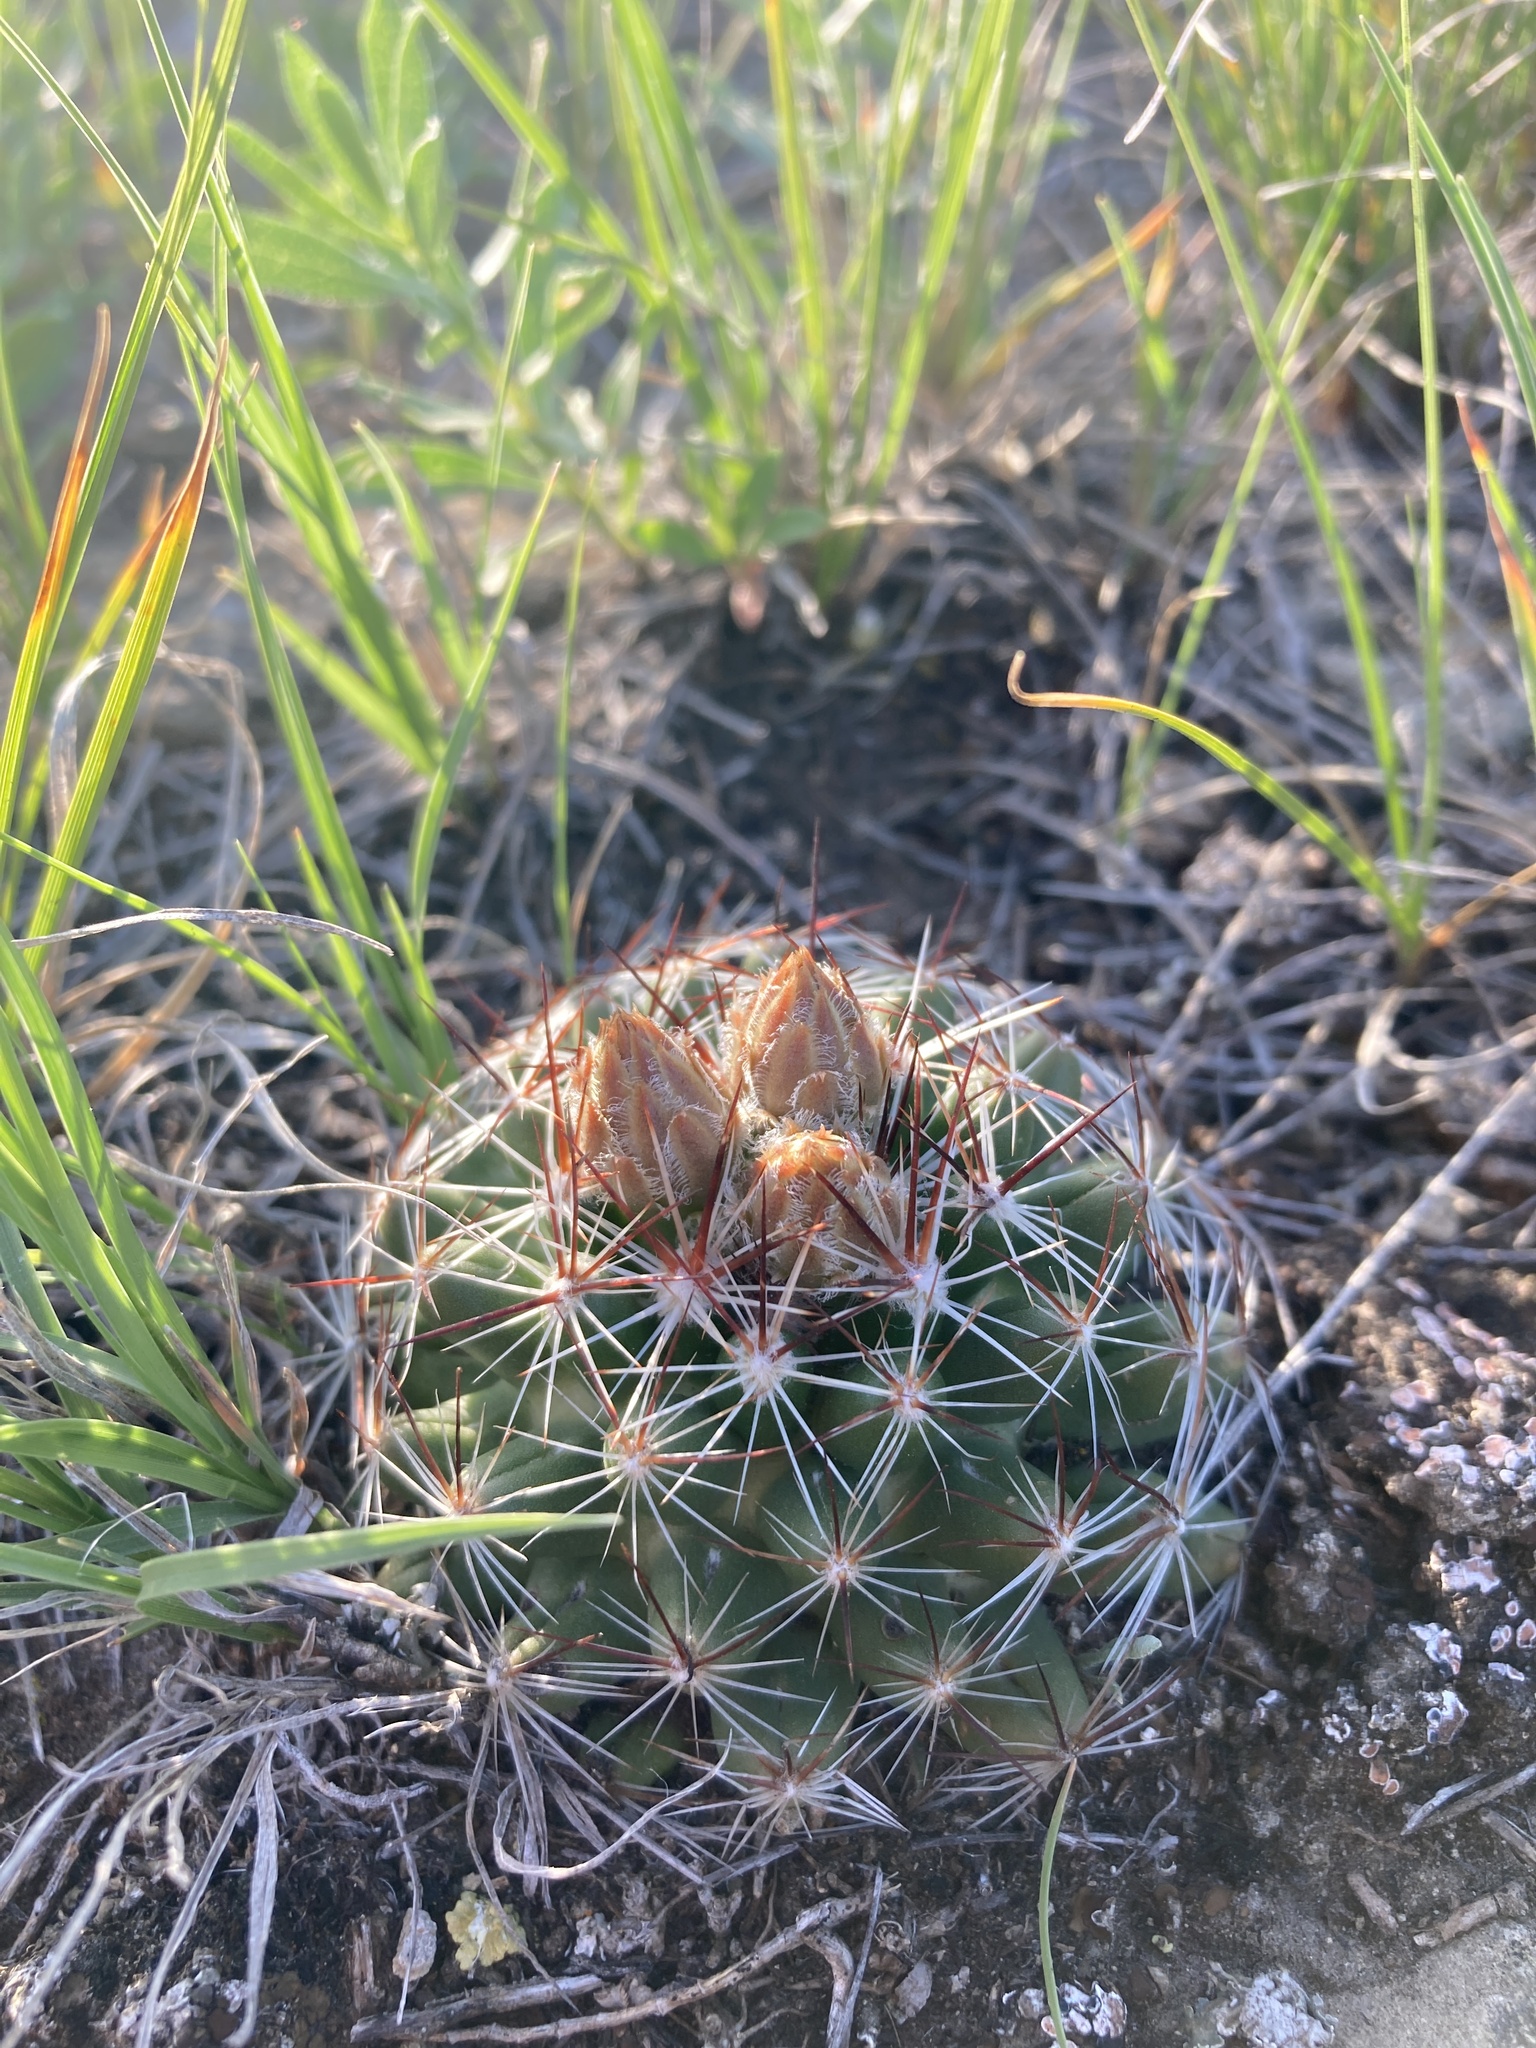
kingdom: Plantae
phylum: Tracheophyta
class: Magnoliopsida
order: Caryophyllales
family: Cactaceae
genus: Pelecyphora
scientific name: Pelecyphora vivipara
